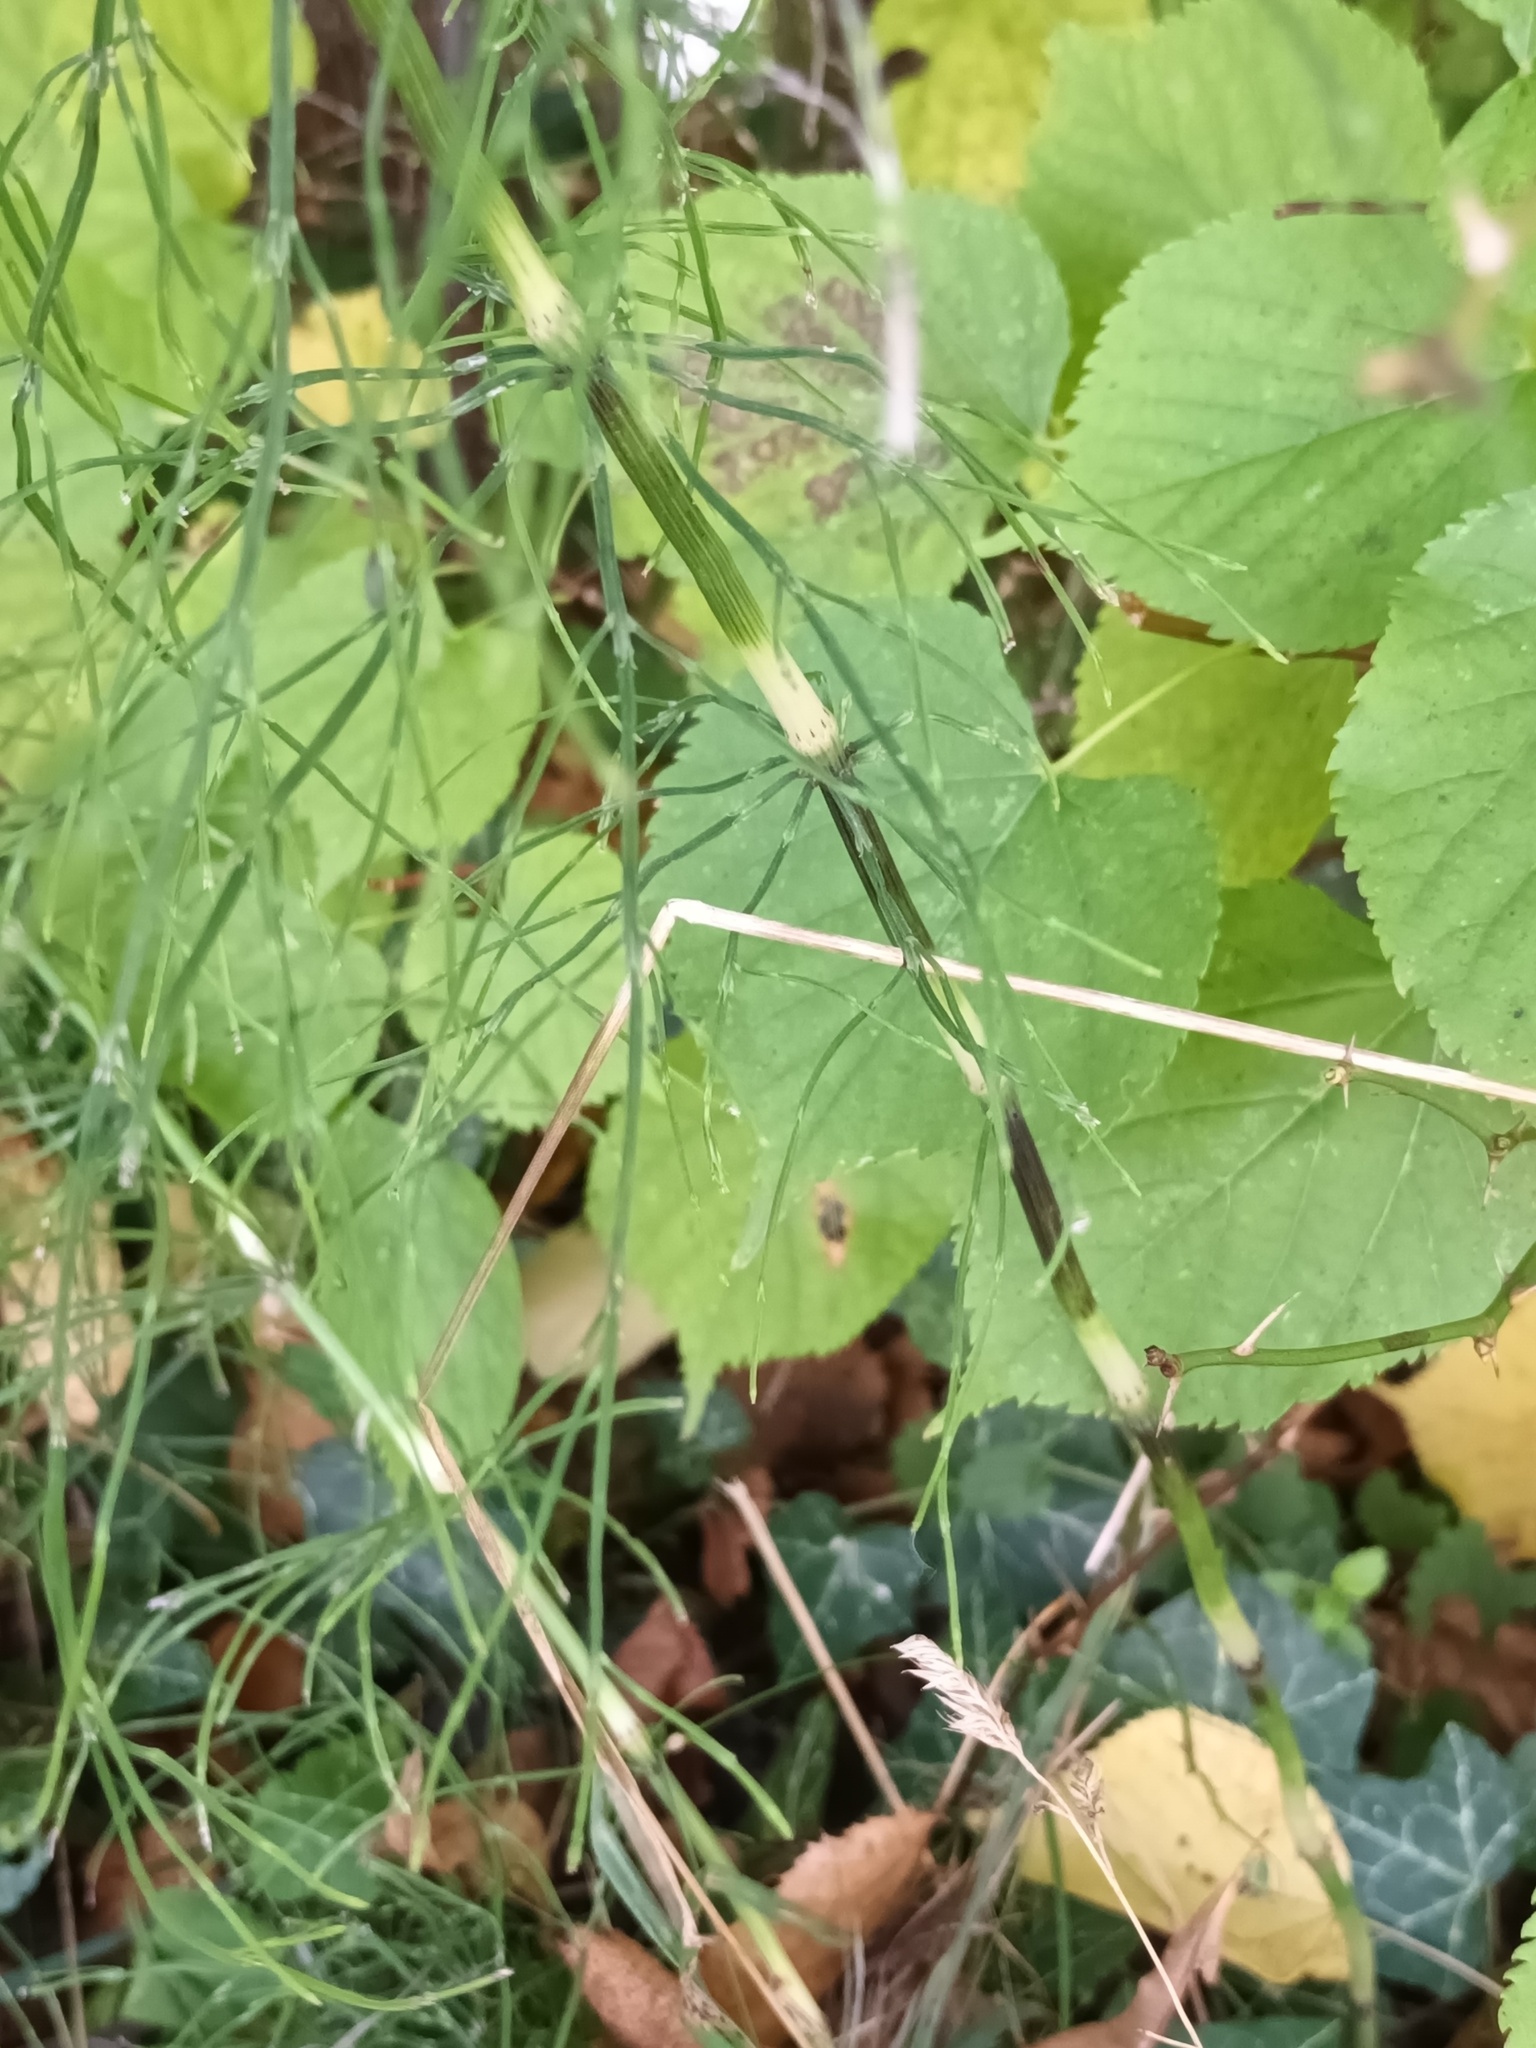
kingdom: Plantae
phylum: Tracheophyta
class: Polypodiopsida
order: Equisetales
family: Equisetaceae
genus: Equisetum
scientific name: Equisetum arvense
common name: Field horsetail
